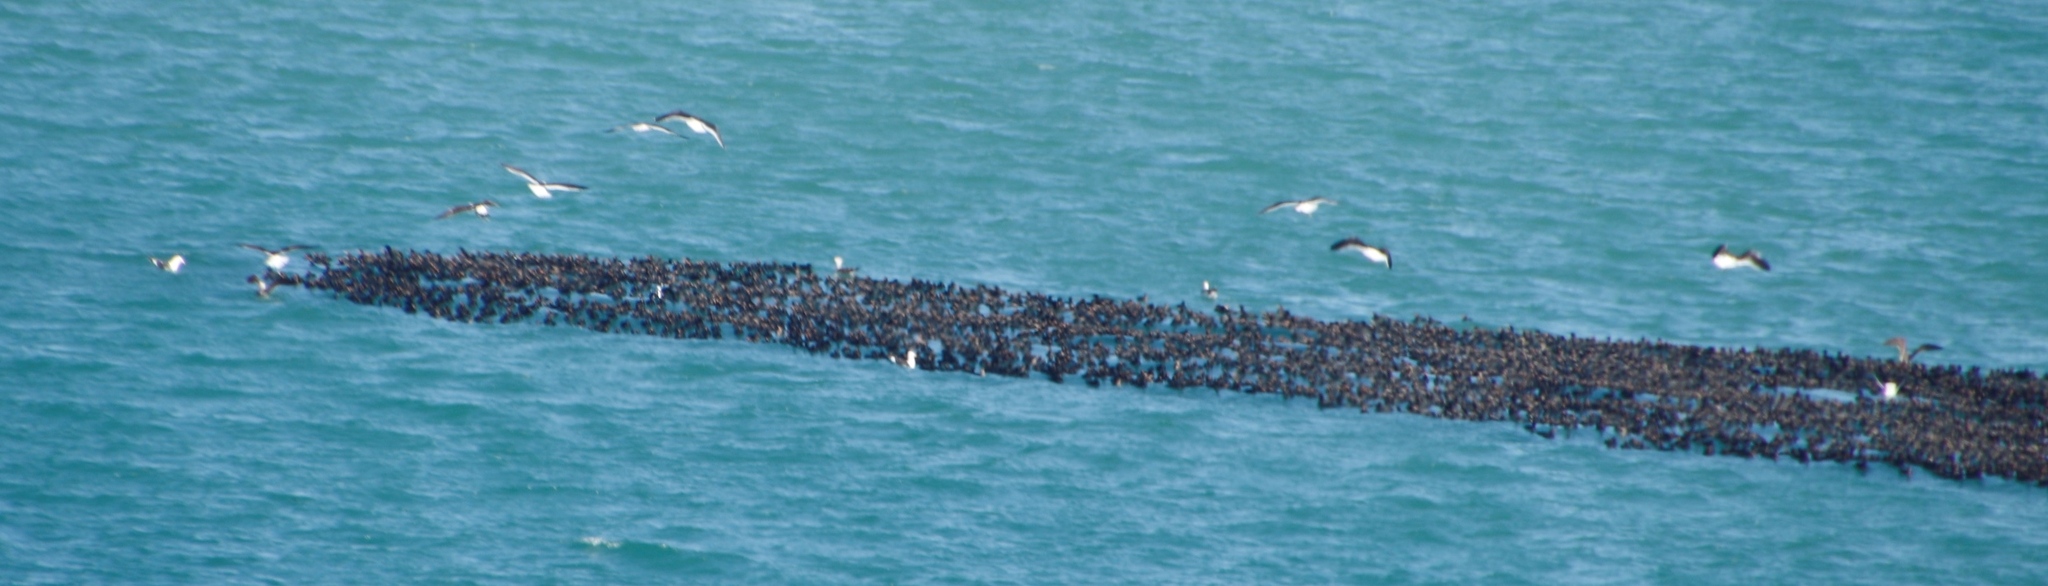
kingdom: Animalia
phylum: Chordata
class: Aves
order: Charadriiformes
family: Laridae
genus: Larus
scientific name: Larus dominicanus
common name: Kelp gull
